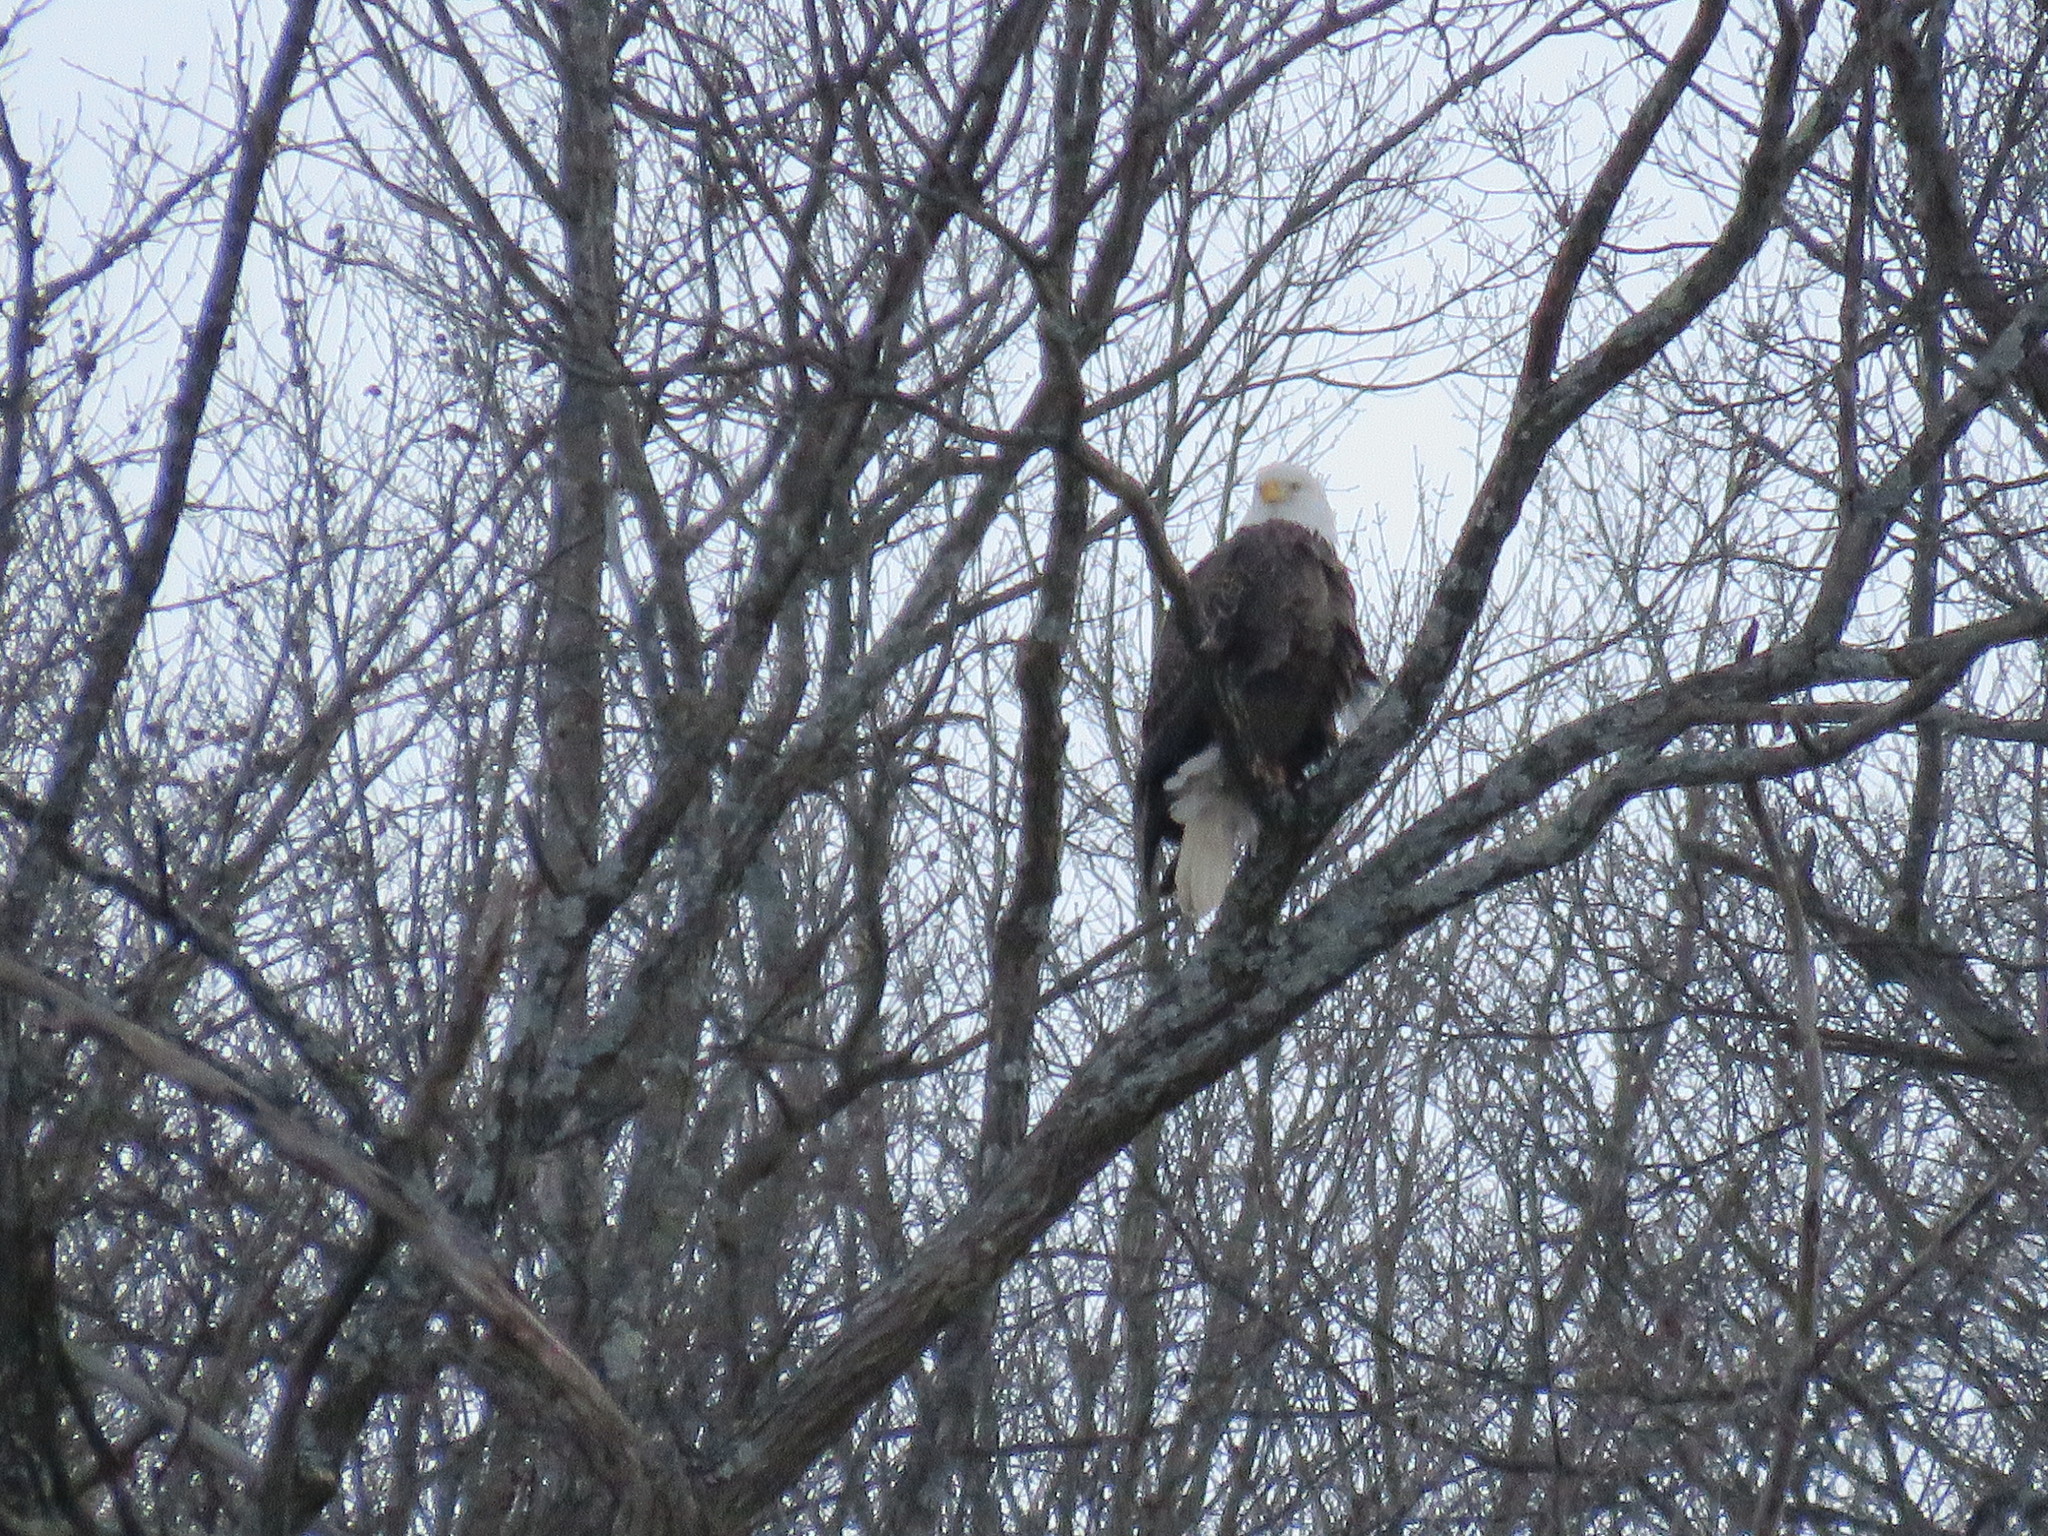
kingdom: Animalia
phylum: Chordata
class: Aves
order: Accipitriformes
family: Accipitridae
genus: Haliaeetus
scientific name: Haliaeetus leucocephalus
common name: Bald eagle
